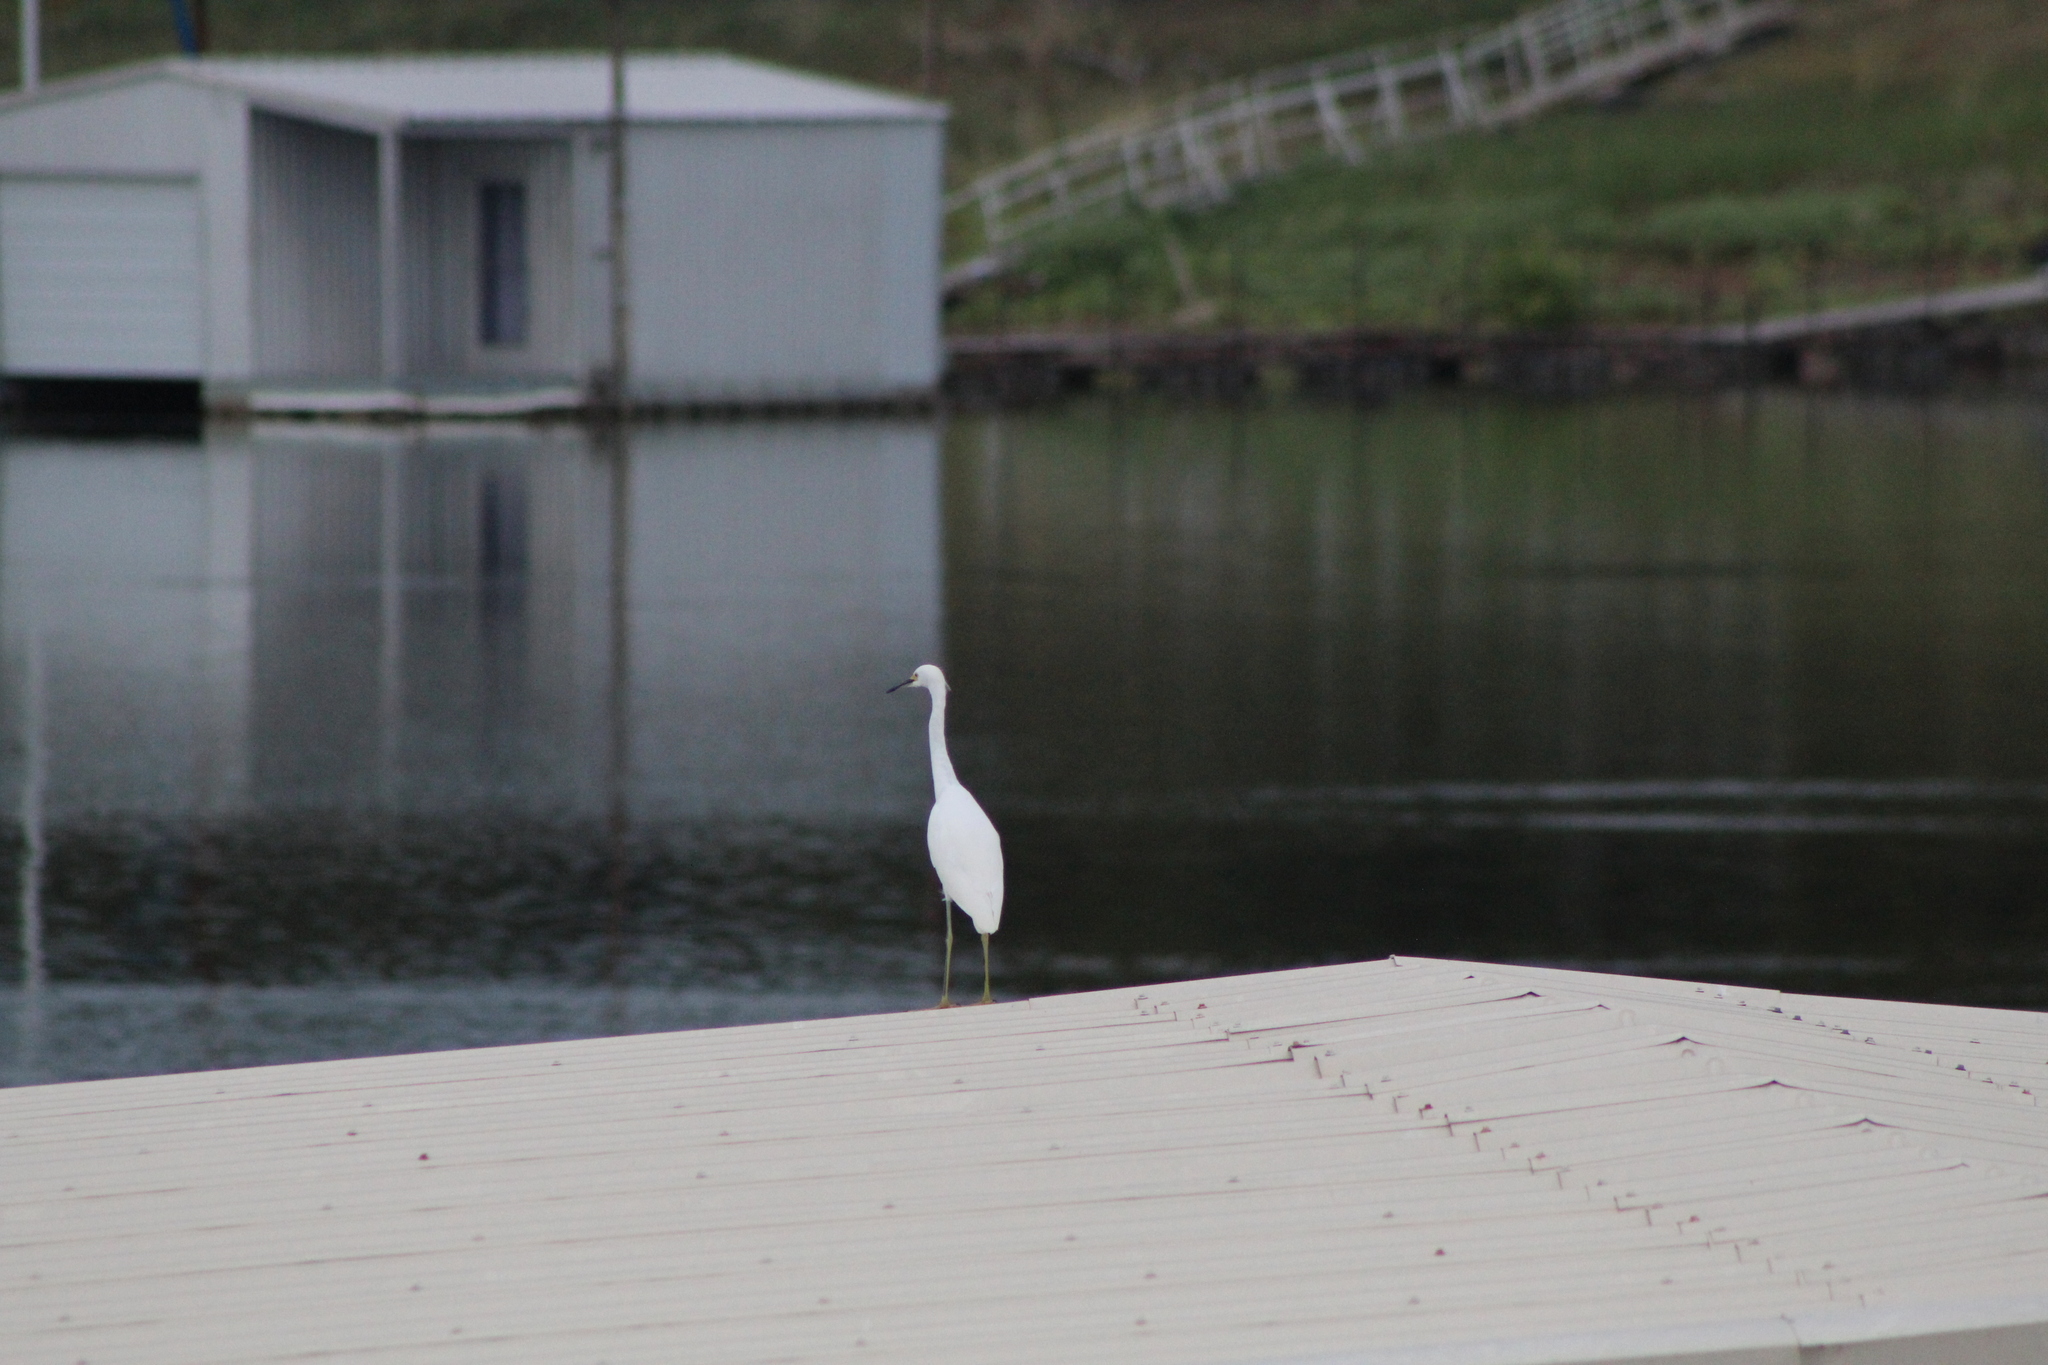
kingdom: Animalia
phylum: Chordata
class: Aves
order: Pelecaniformes
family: Ardeidae
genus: Egretta
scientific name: Egretta thula
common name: Snowy egret
